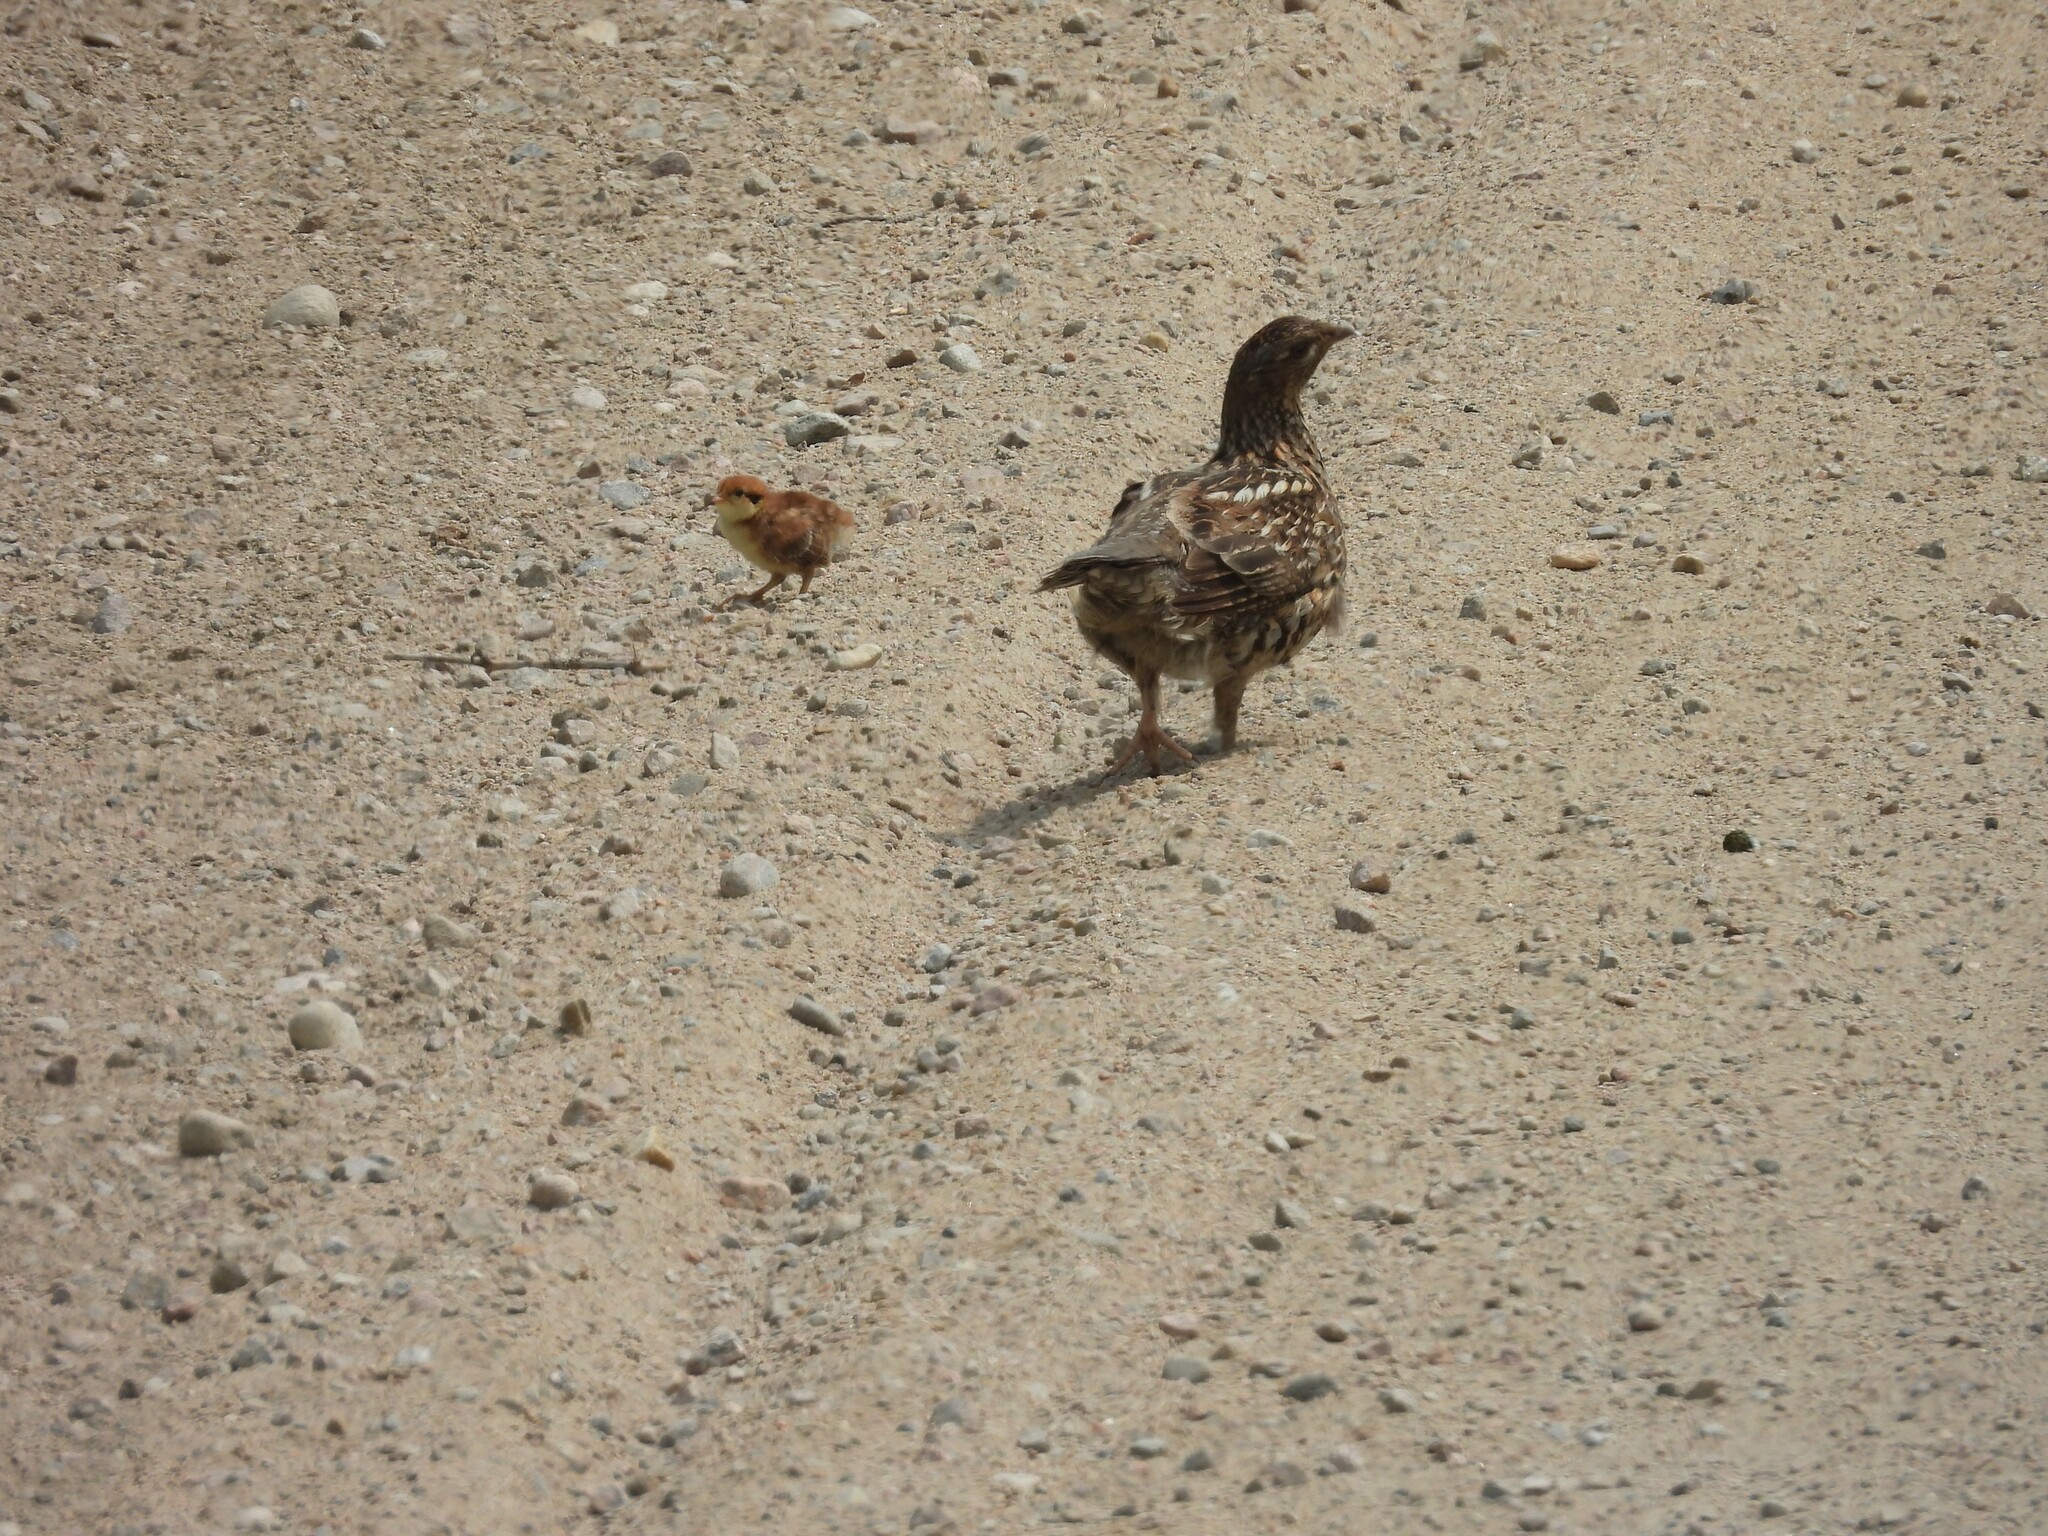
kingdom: Animalia
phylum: Chordata
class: Aves
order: Galliformes
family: Phasianidae
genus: Bonasa
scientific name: Bonasa umbellus
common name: Ruffed grouse
